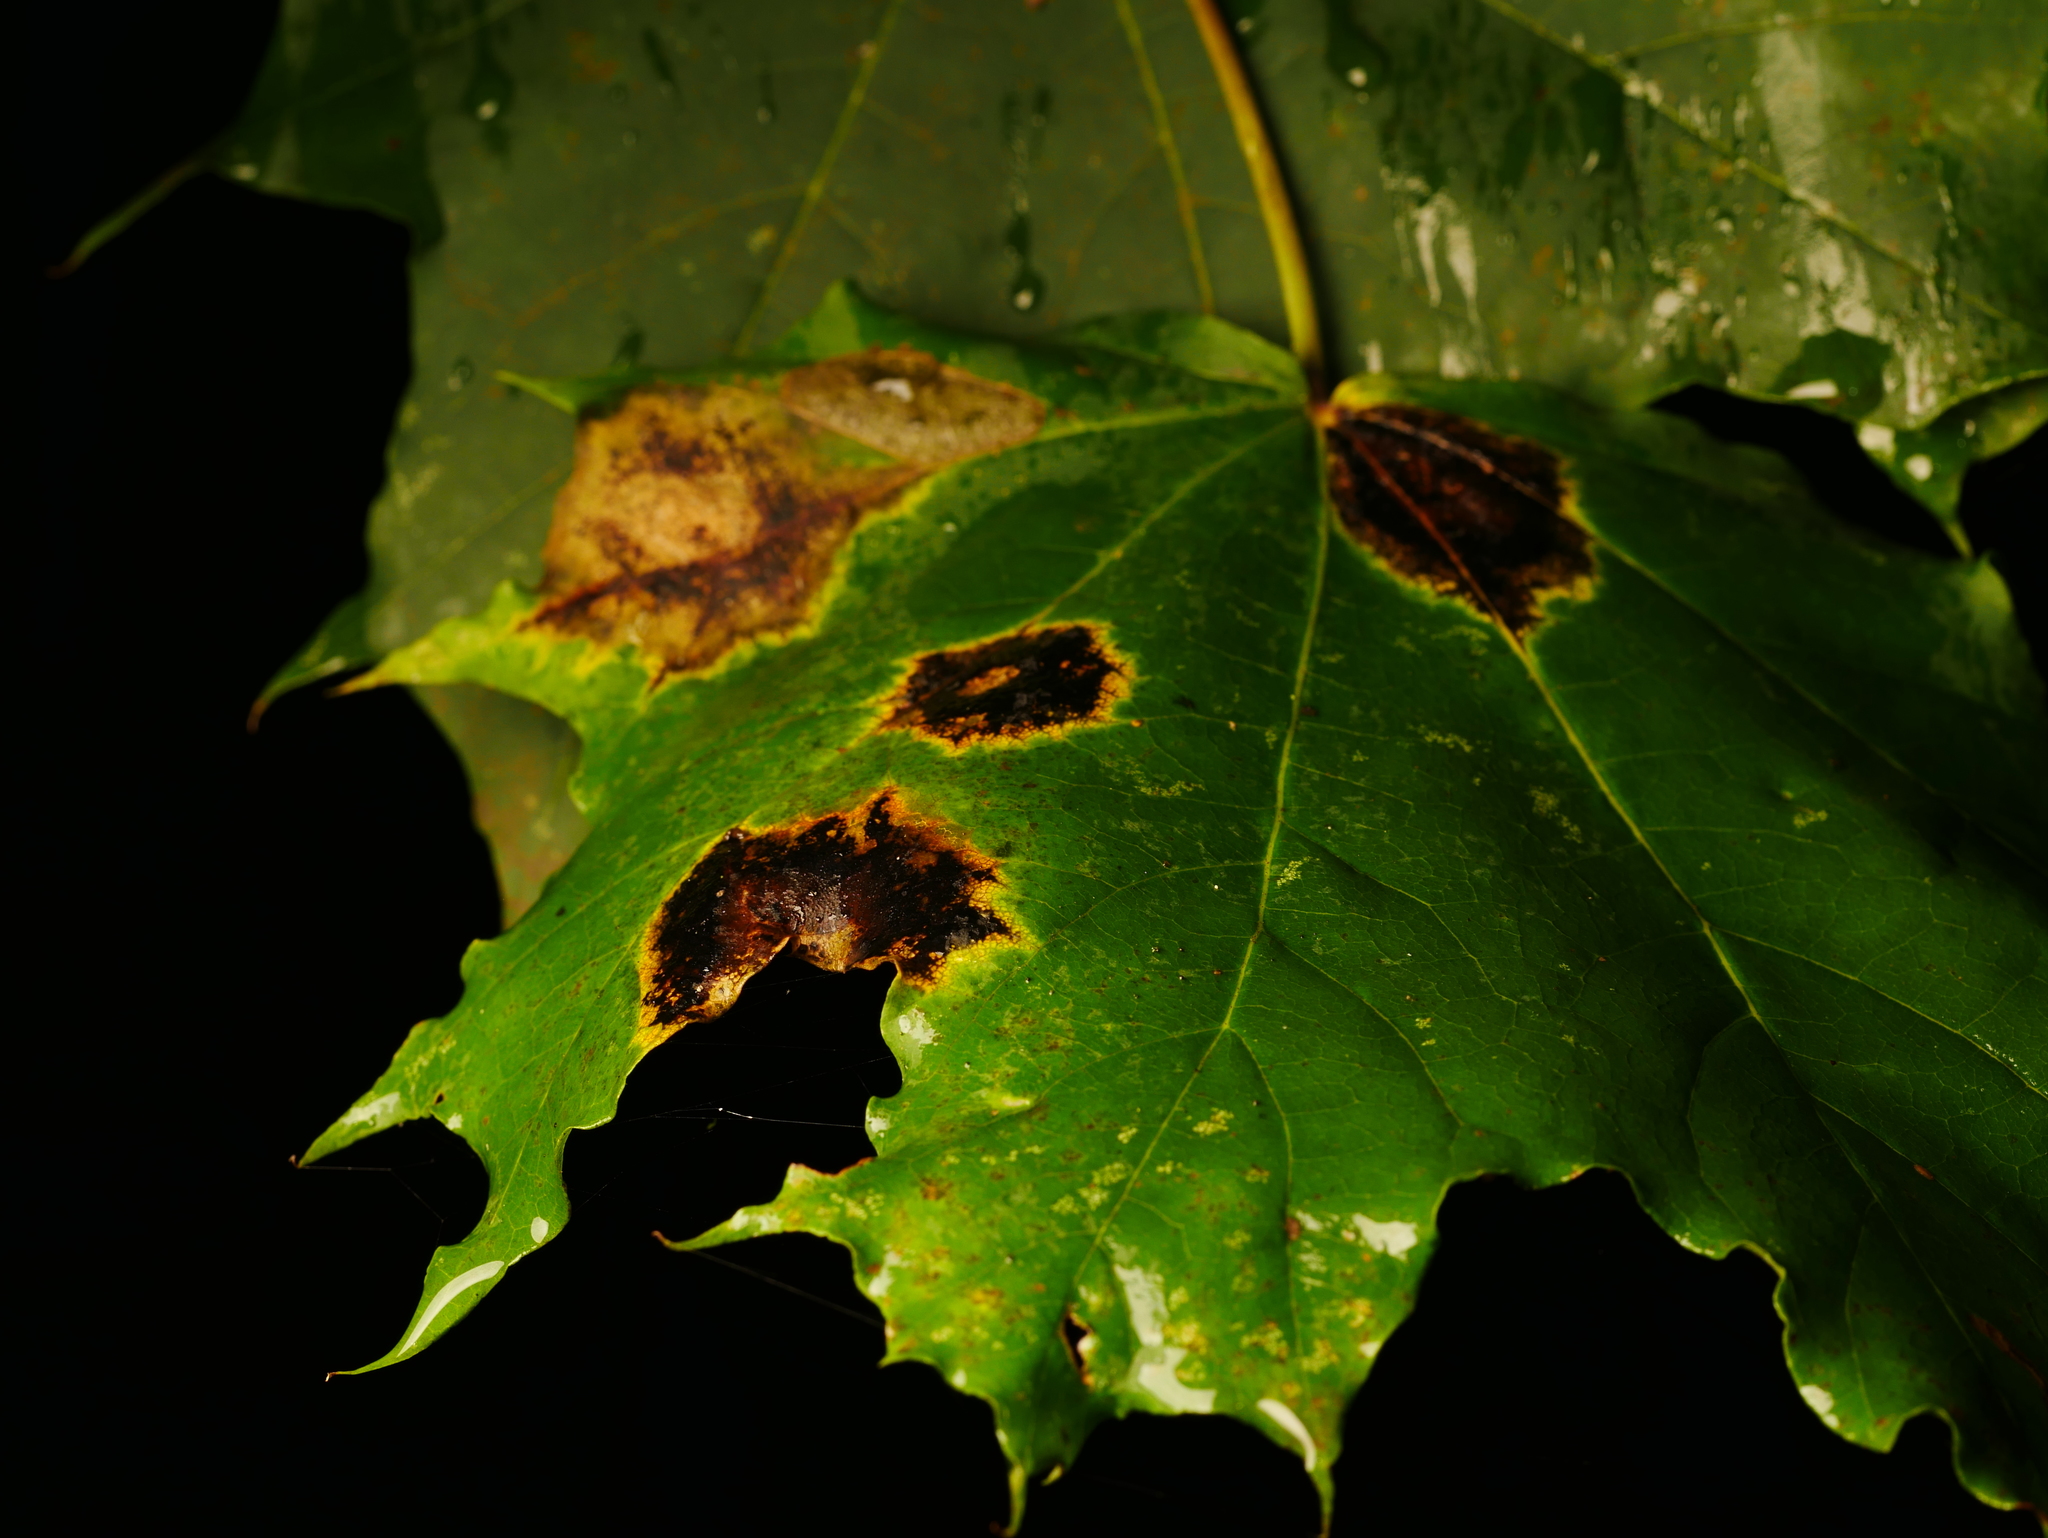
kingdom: Fungi
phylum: Ascomycota
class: Leotiomycetes
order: Rhytismatales
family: Rhytismataceae
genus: Rhytisma
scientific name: Rhytisma acerinum
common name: European tar spot
